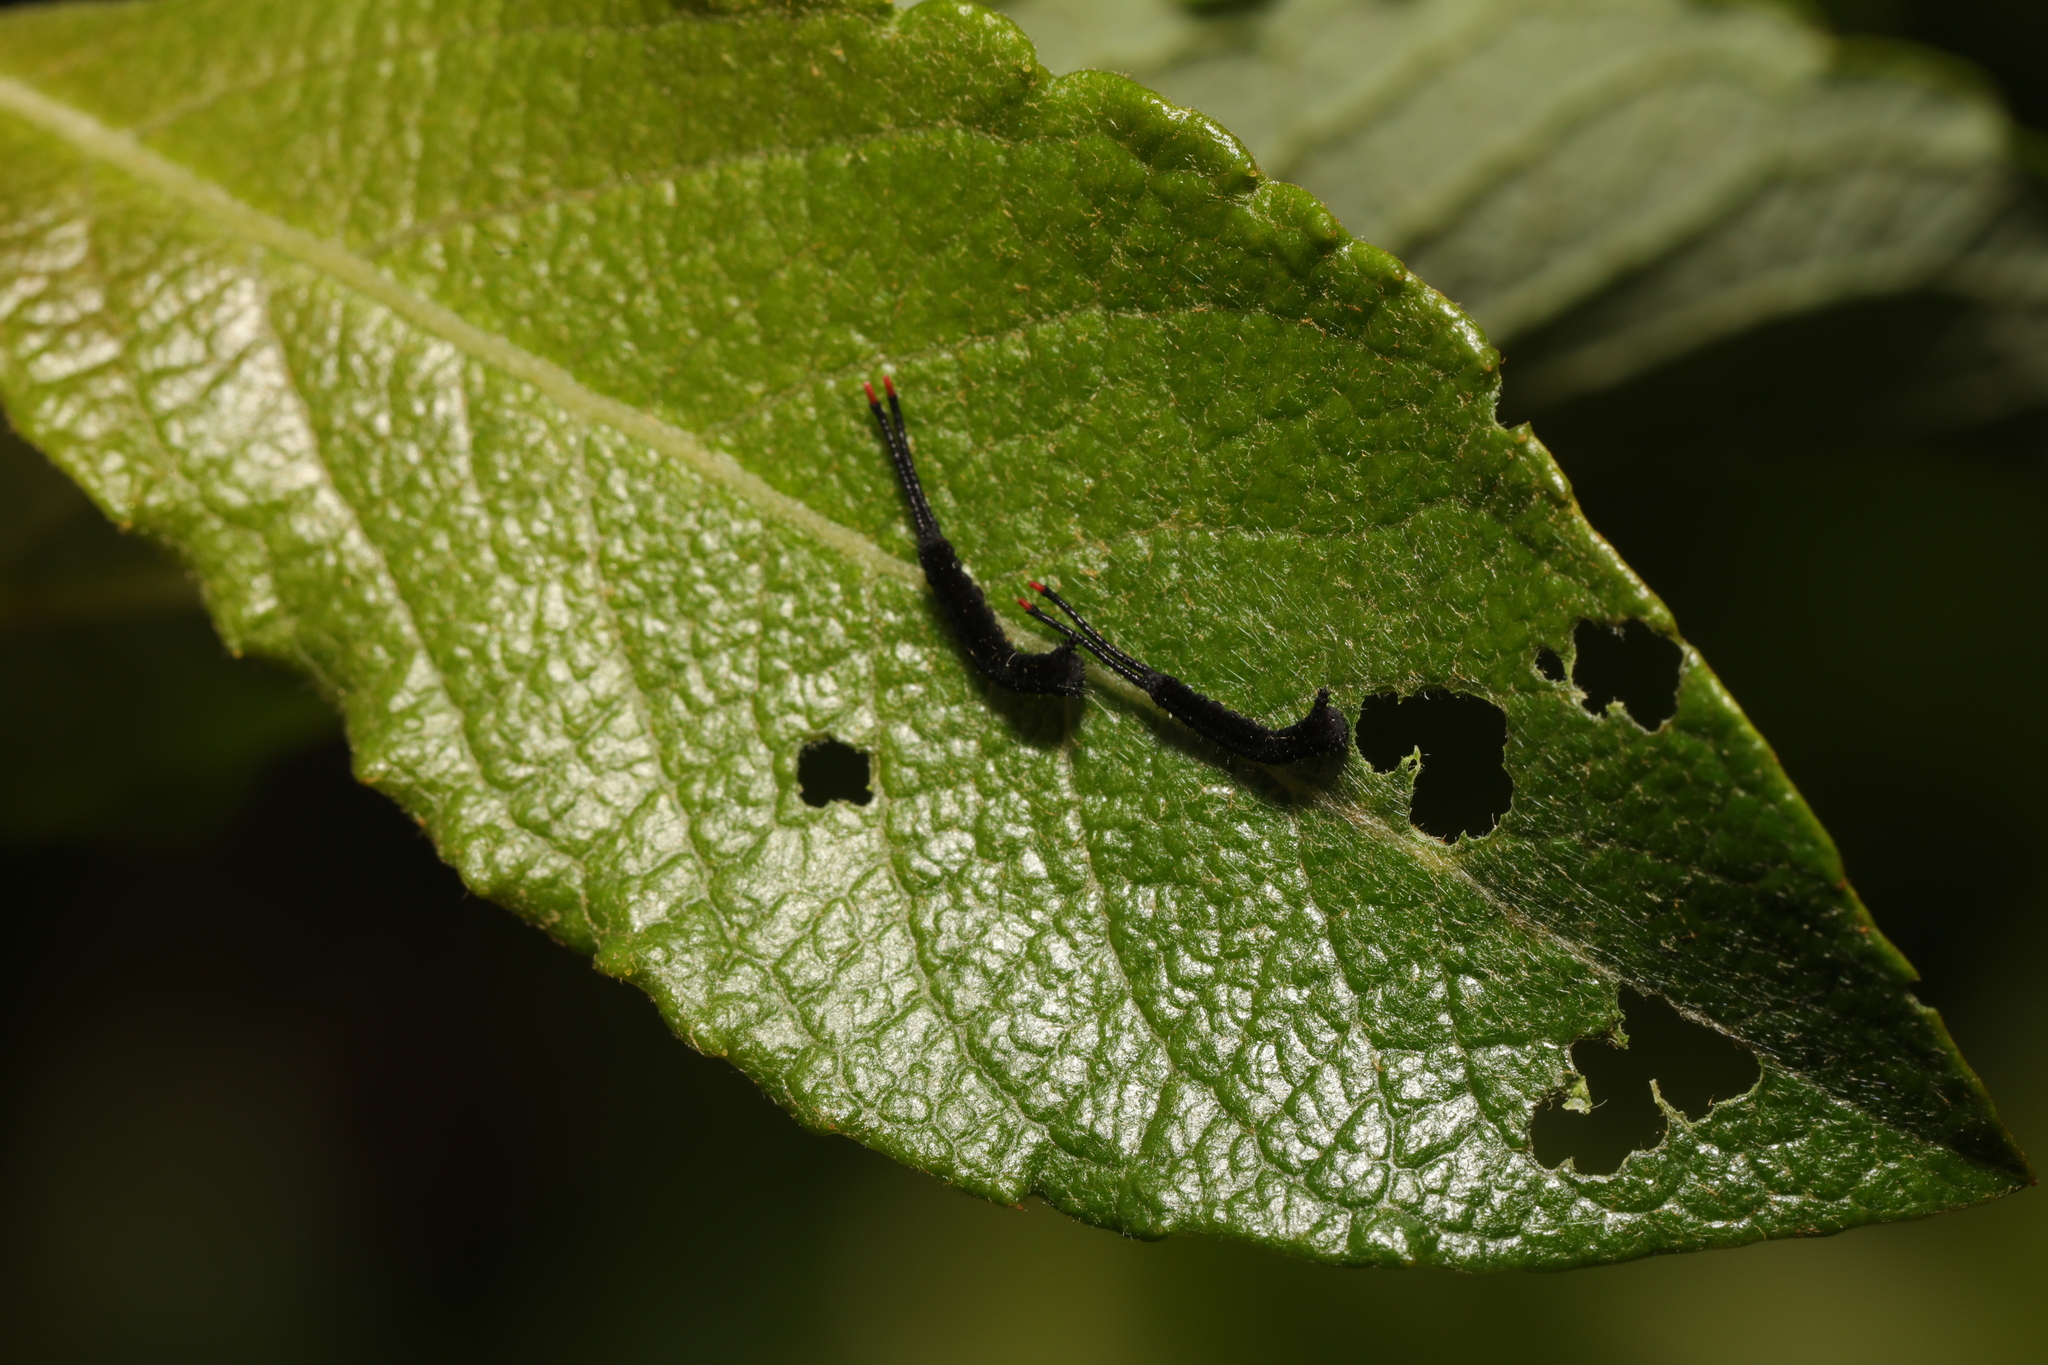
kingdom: Animalia
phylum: Arthropoda
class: Insecta
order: Lepidoptera
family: Notodontidae
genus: Cerura
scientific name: Cerura vinula
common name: Puss moth
